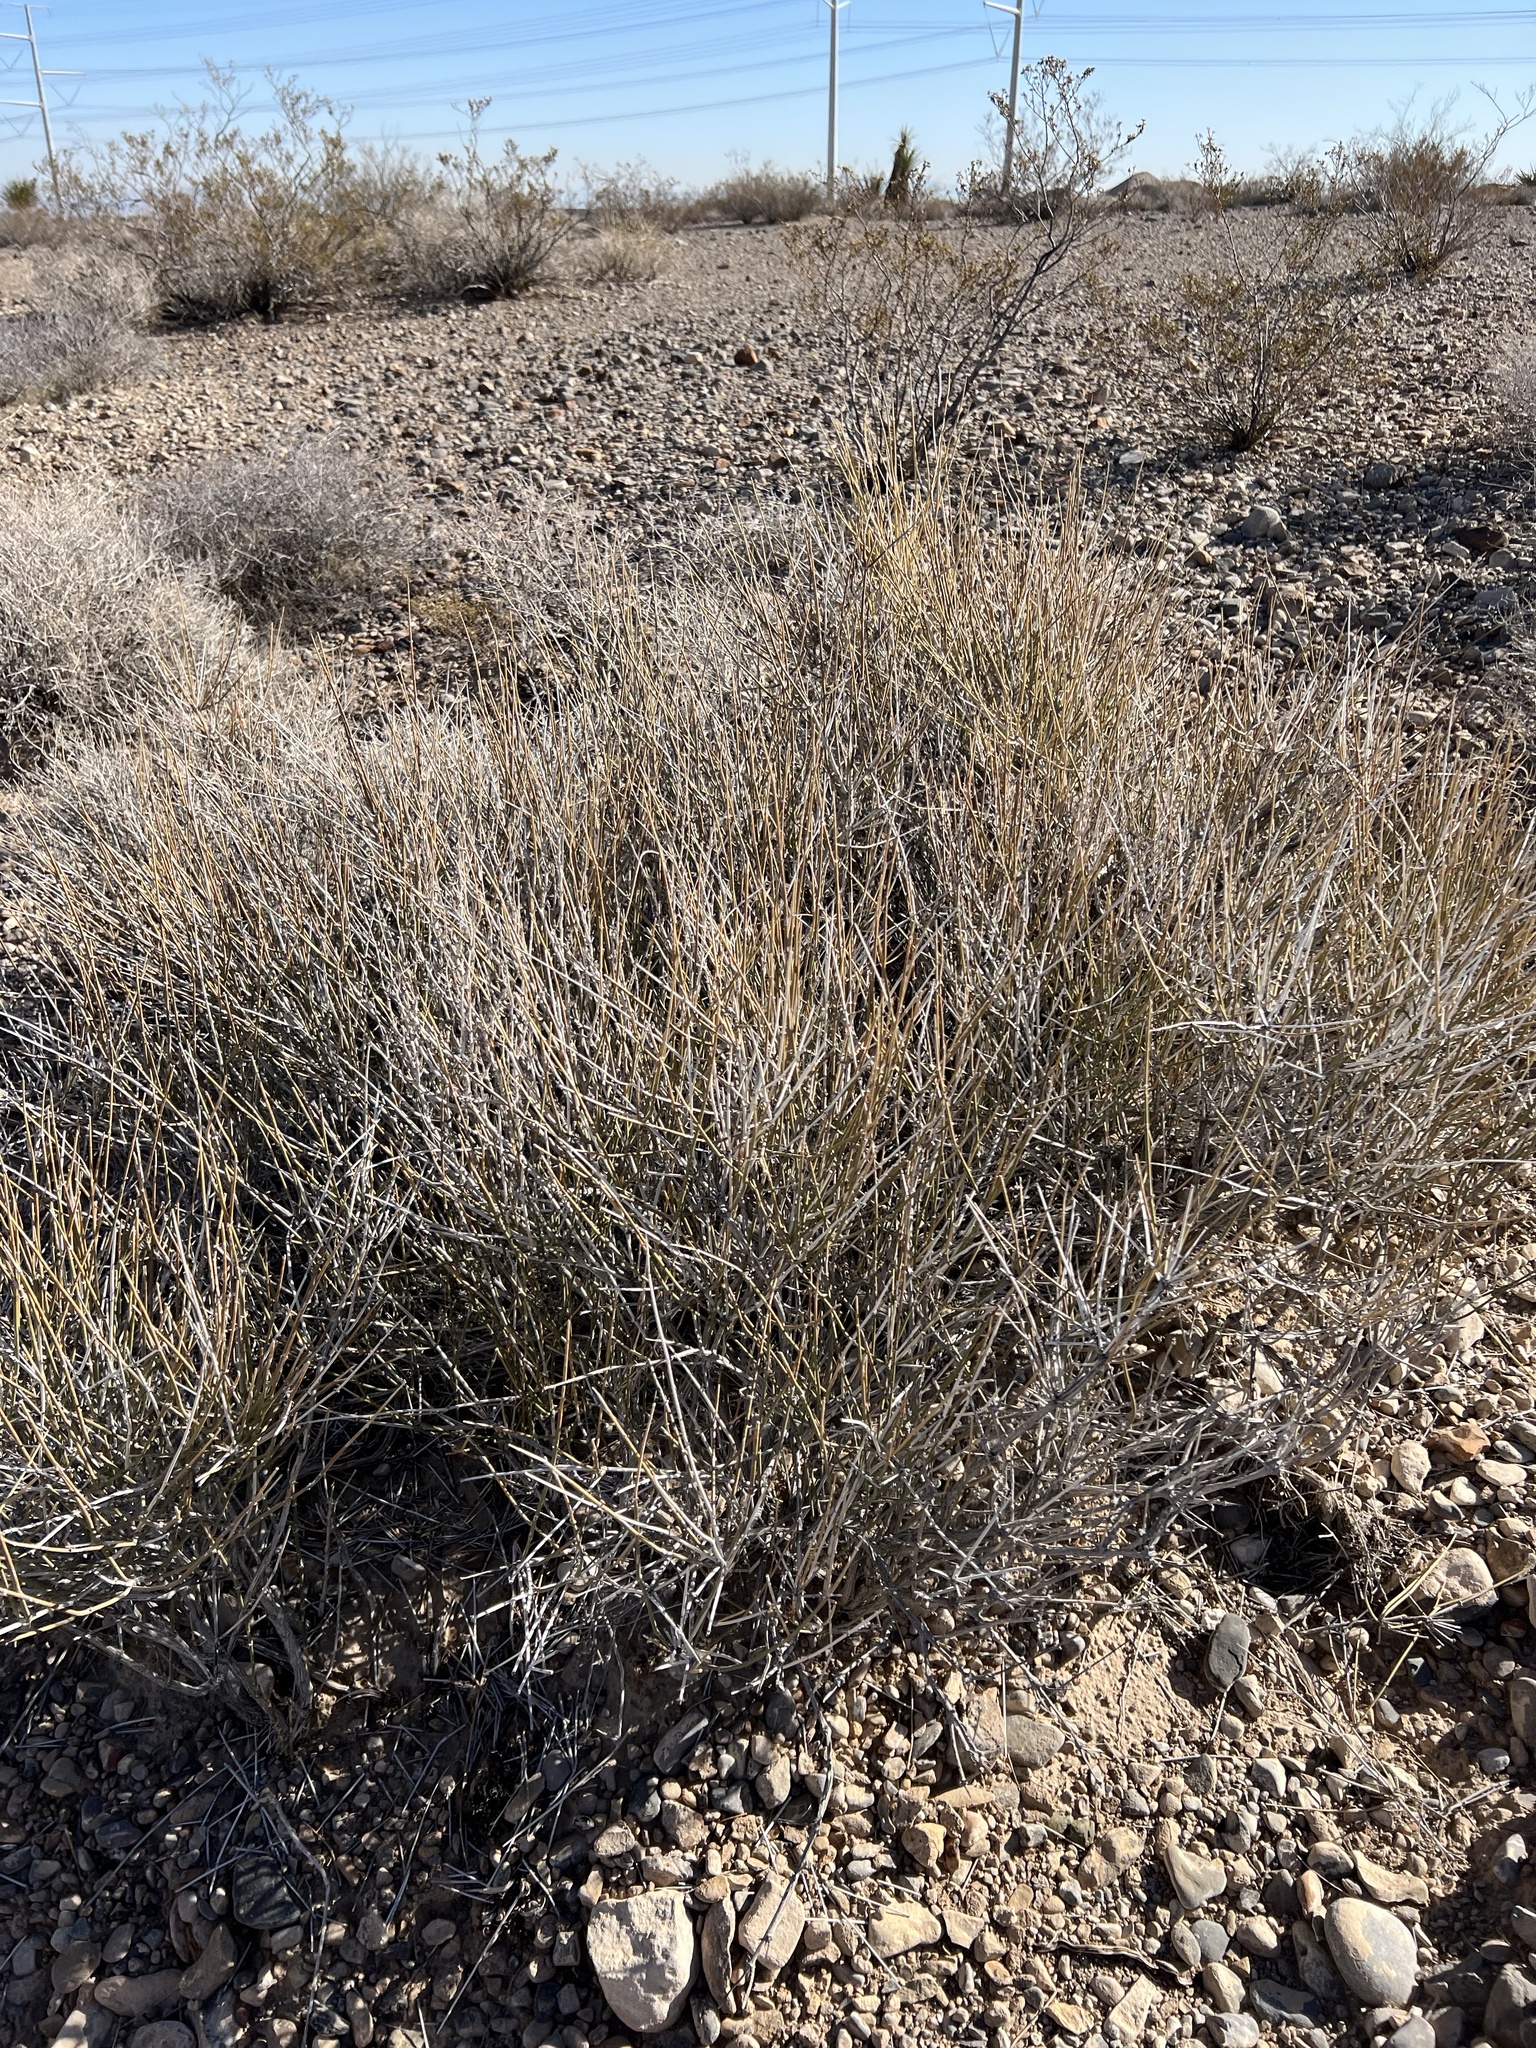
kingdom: Plantae
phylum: Tracheophyta
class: Gnetopsida
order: Ephedrales
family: Ephedraceae
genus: Ephedra
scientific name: Ephedra nevadensis
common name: Gray ephedra
